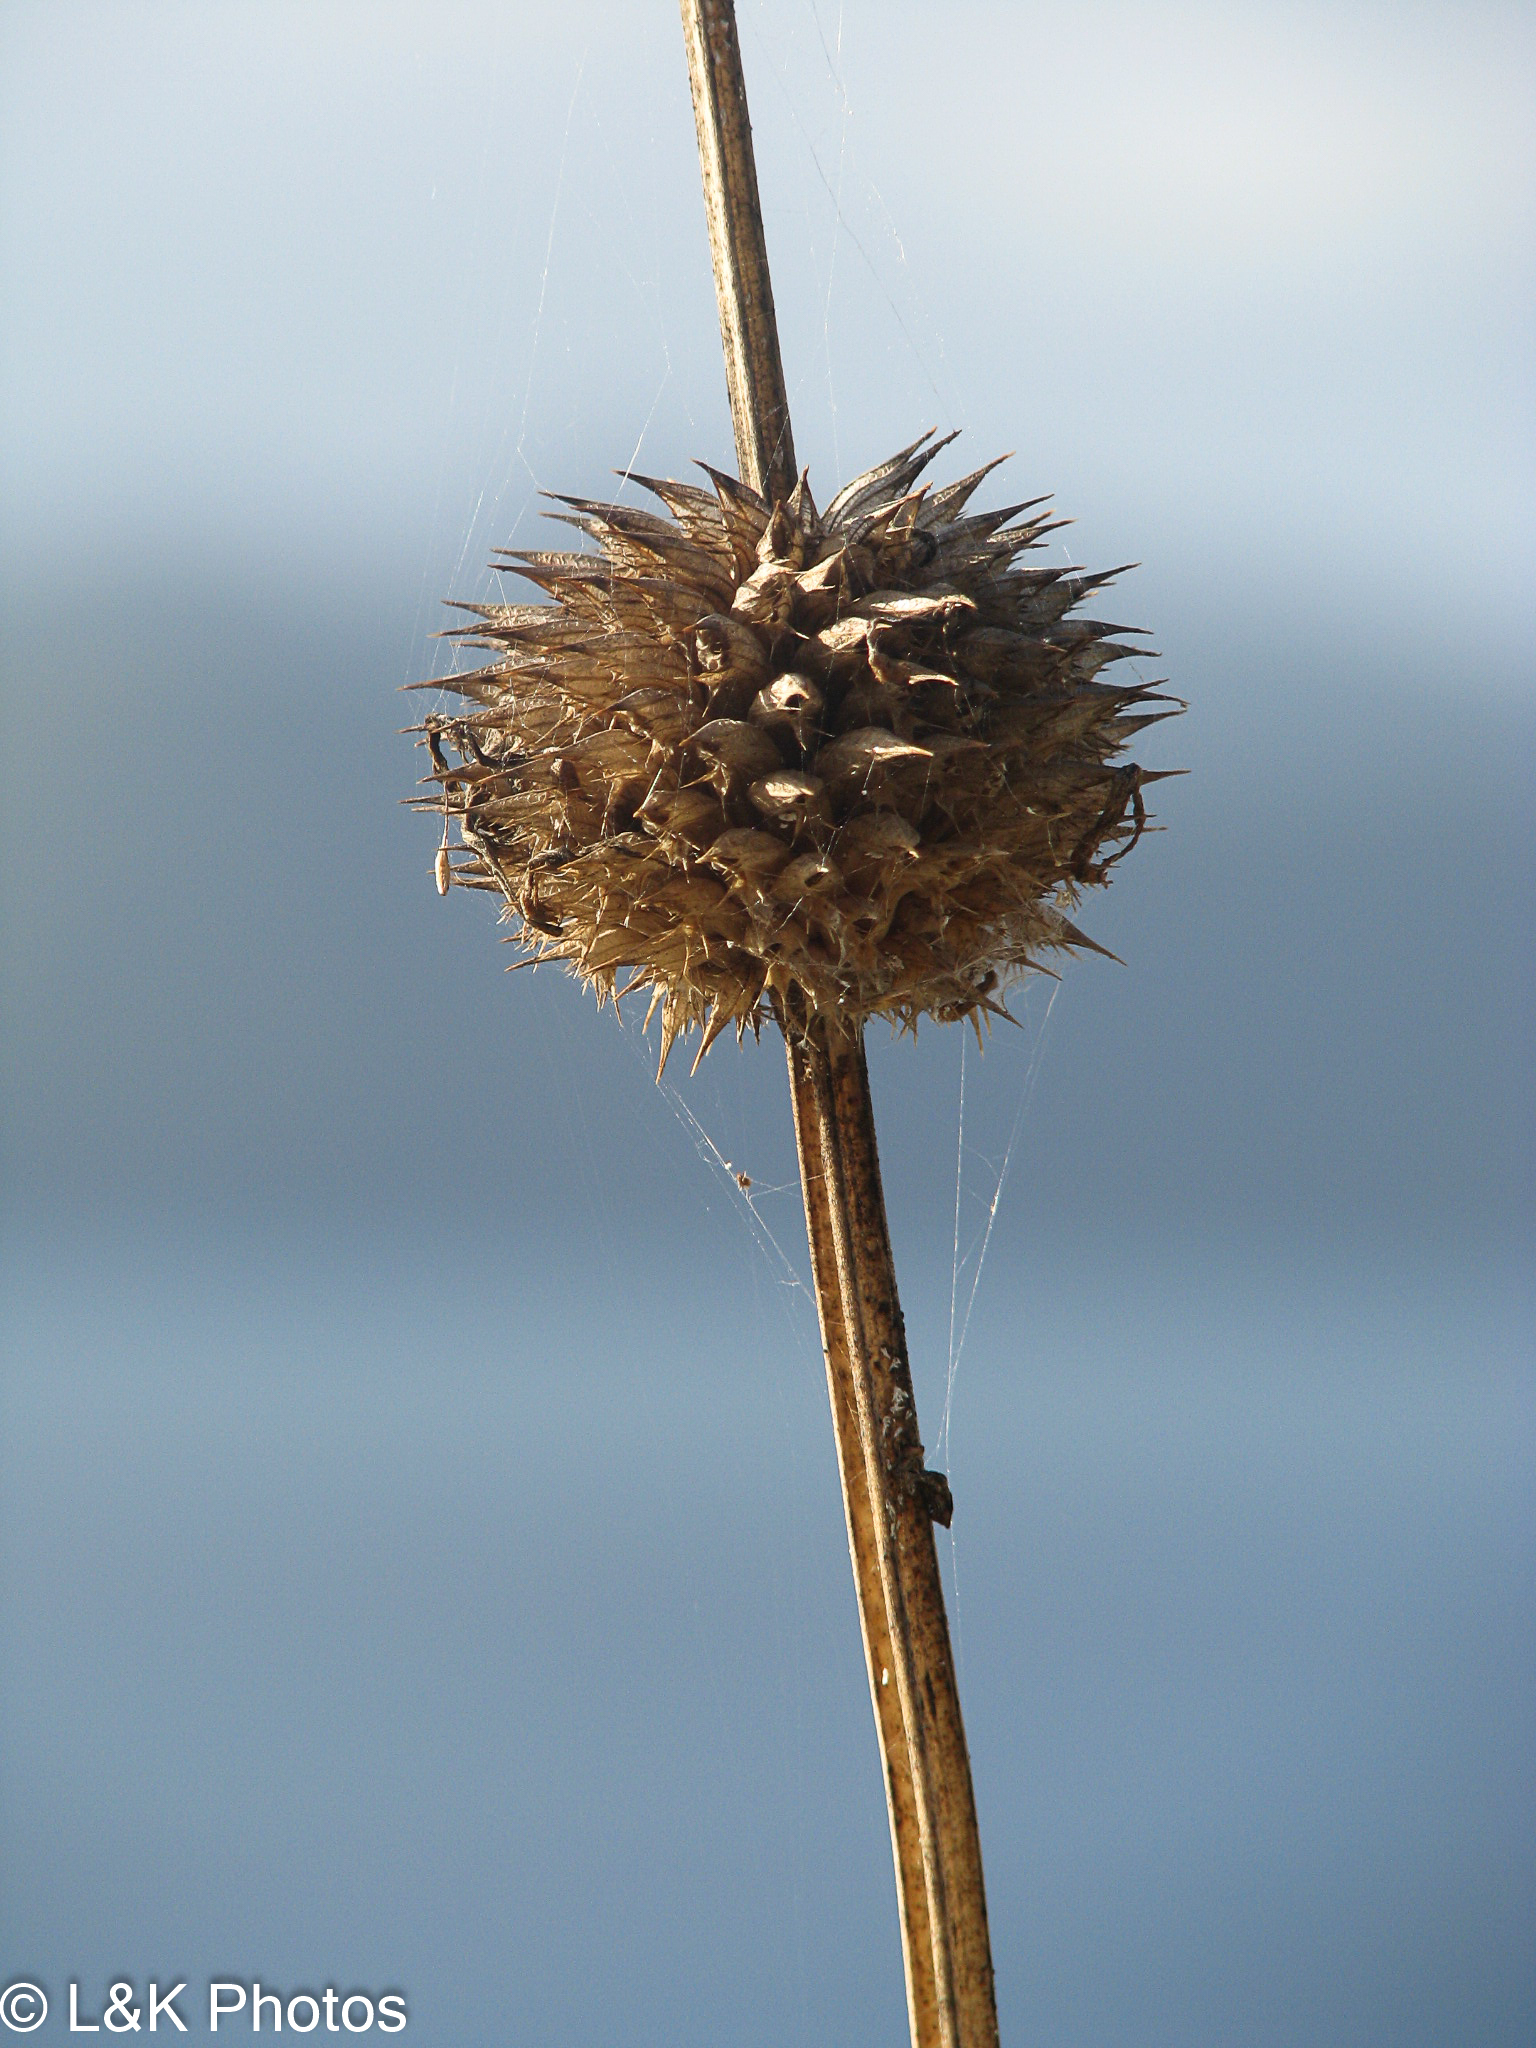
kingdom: Plantae
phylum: Tracheophyta
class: Magnoliopsida
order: Lamiales
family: Lamiaceae
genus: Leonotis
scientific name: Leonotis nepetifolia
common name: Christmas candlestick
